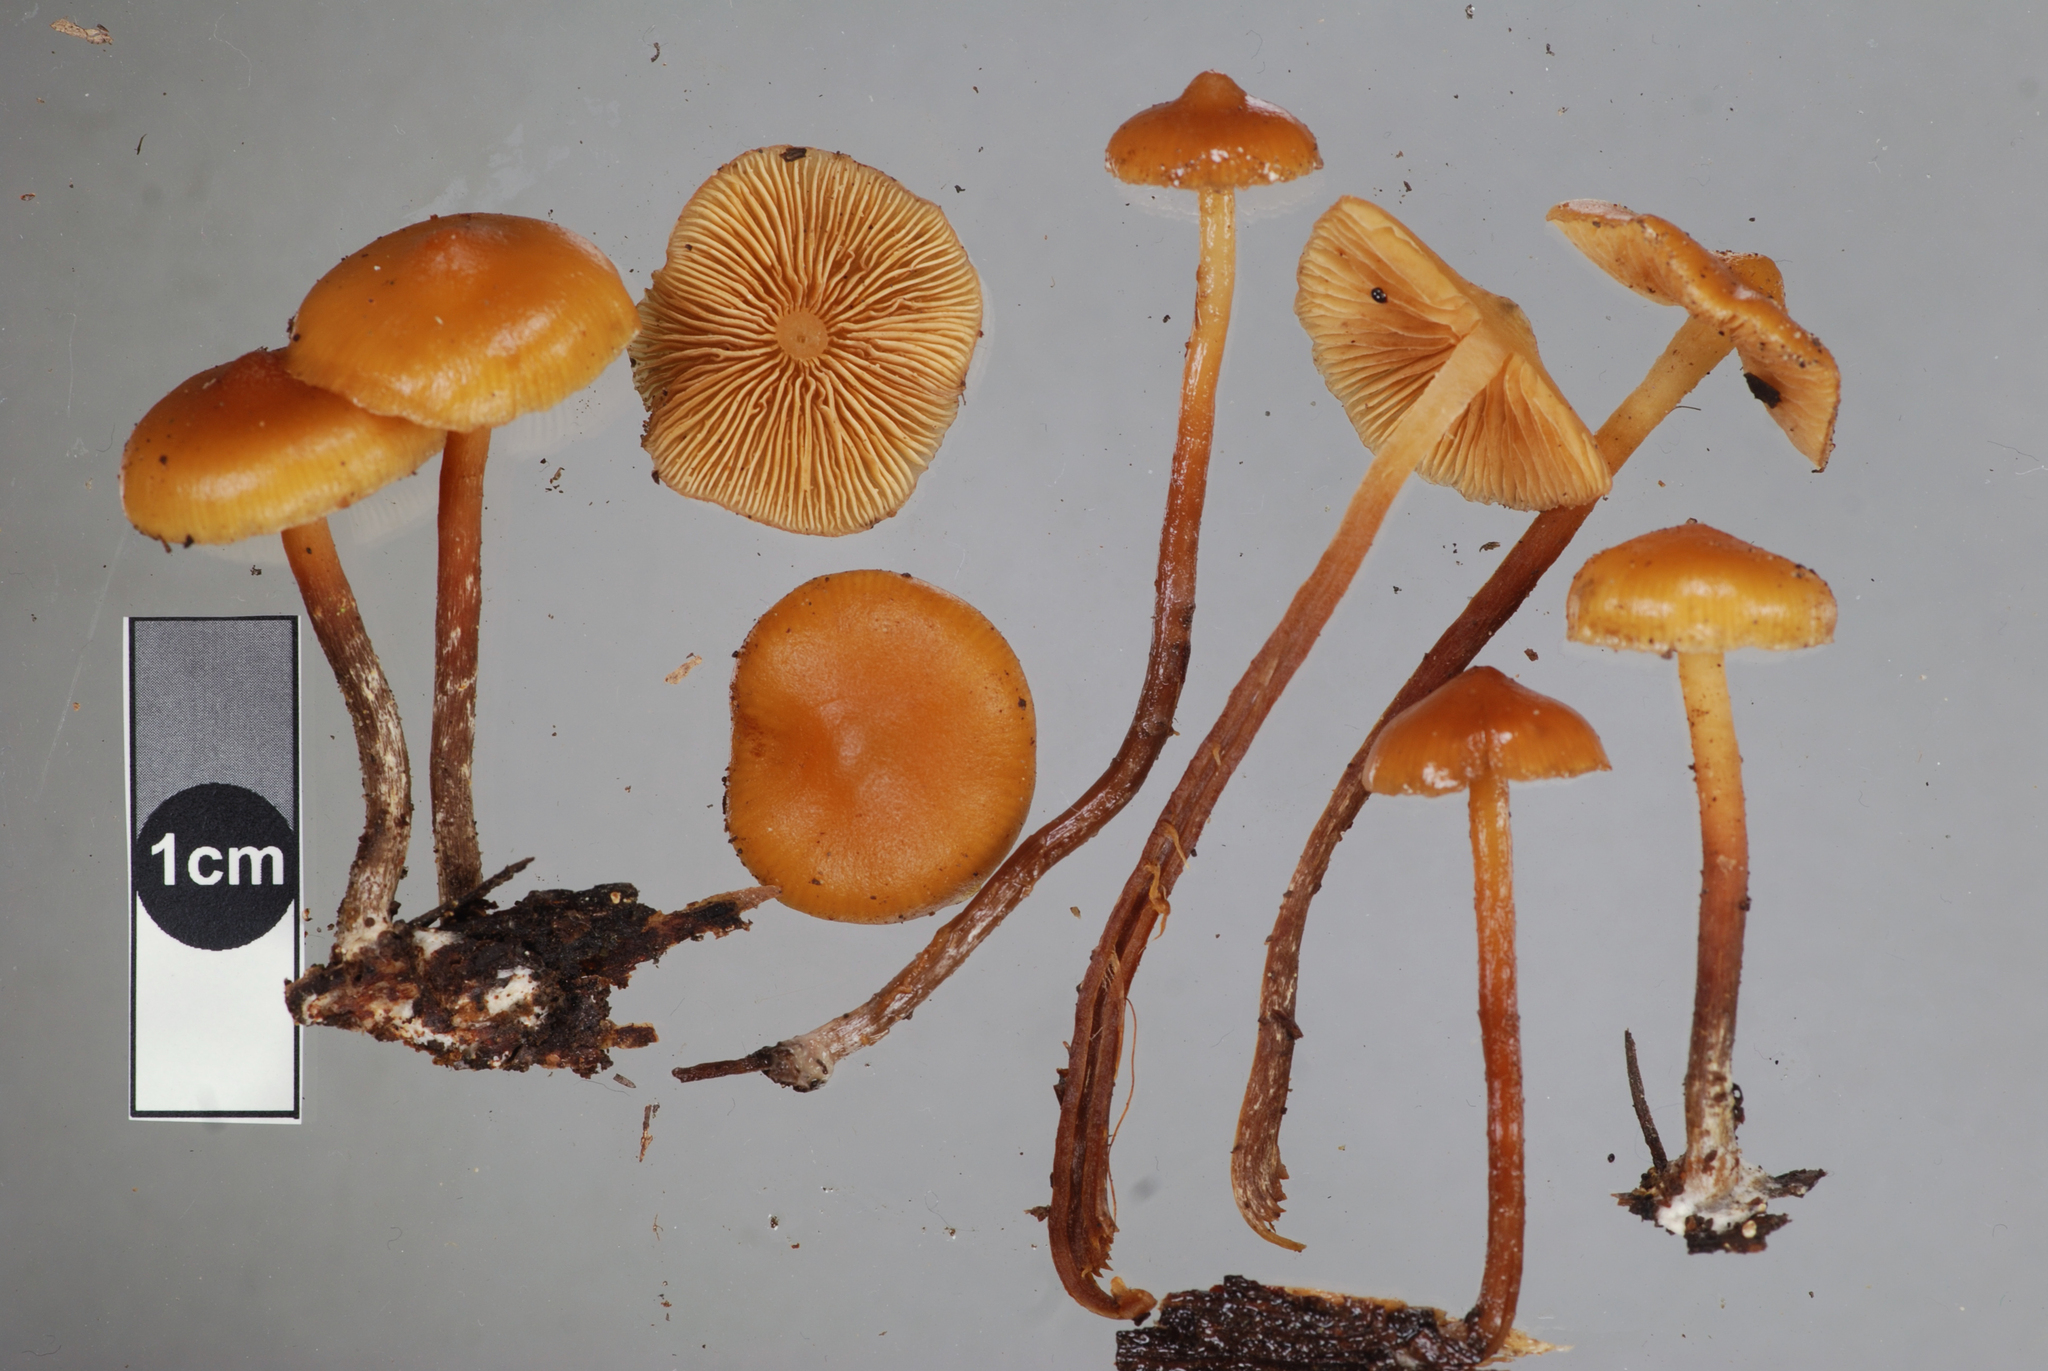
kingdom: Fungi
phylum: Basidiomycota
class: Agaricomycetes
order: Agaricales
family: Hymenogastraceae
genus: Galerina
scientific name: Galerina
